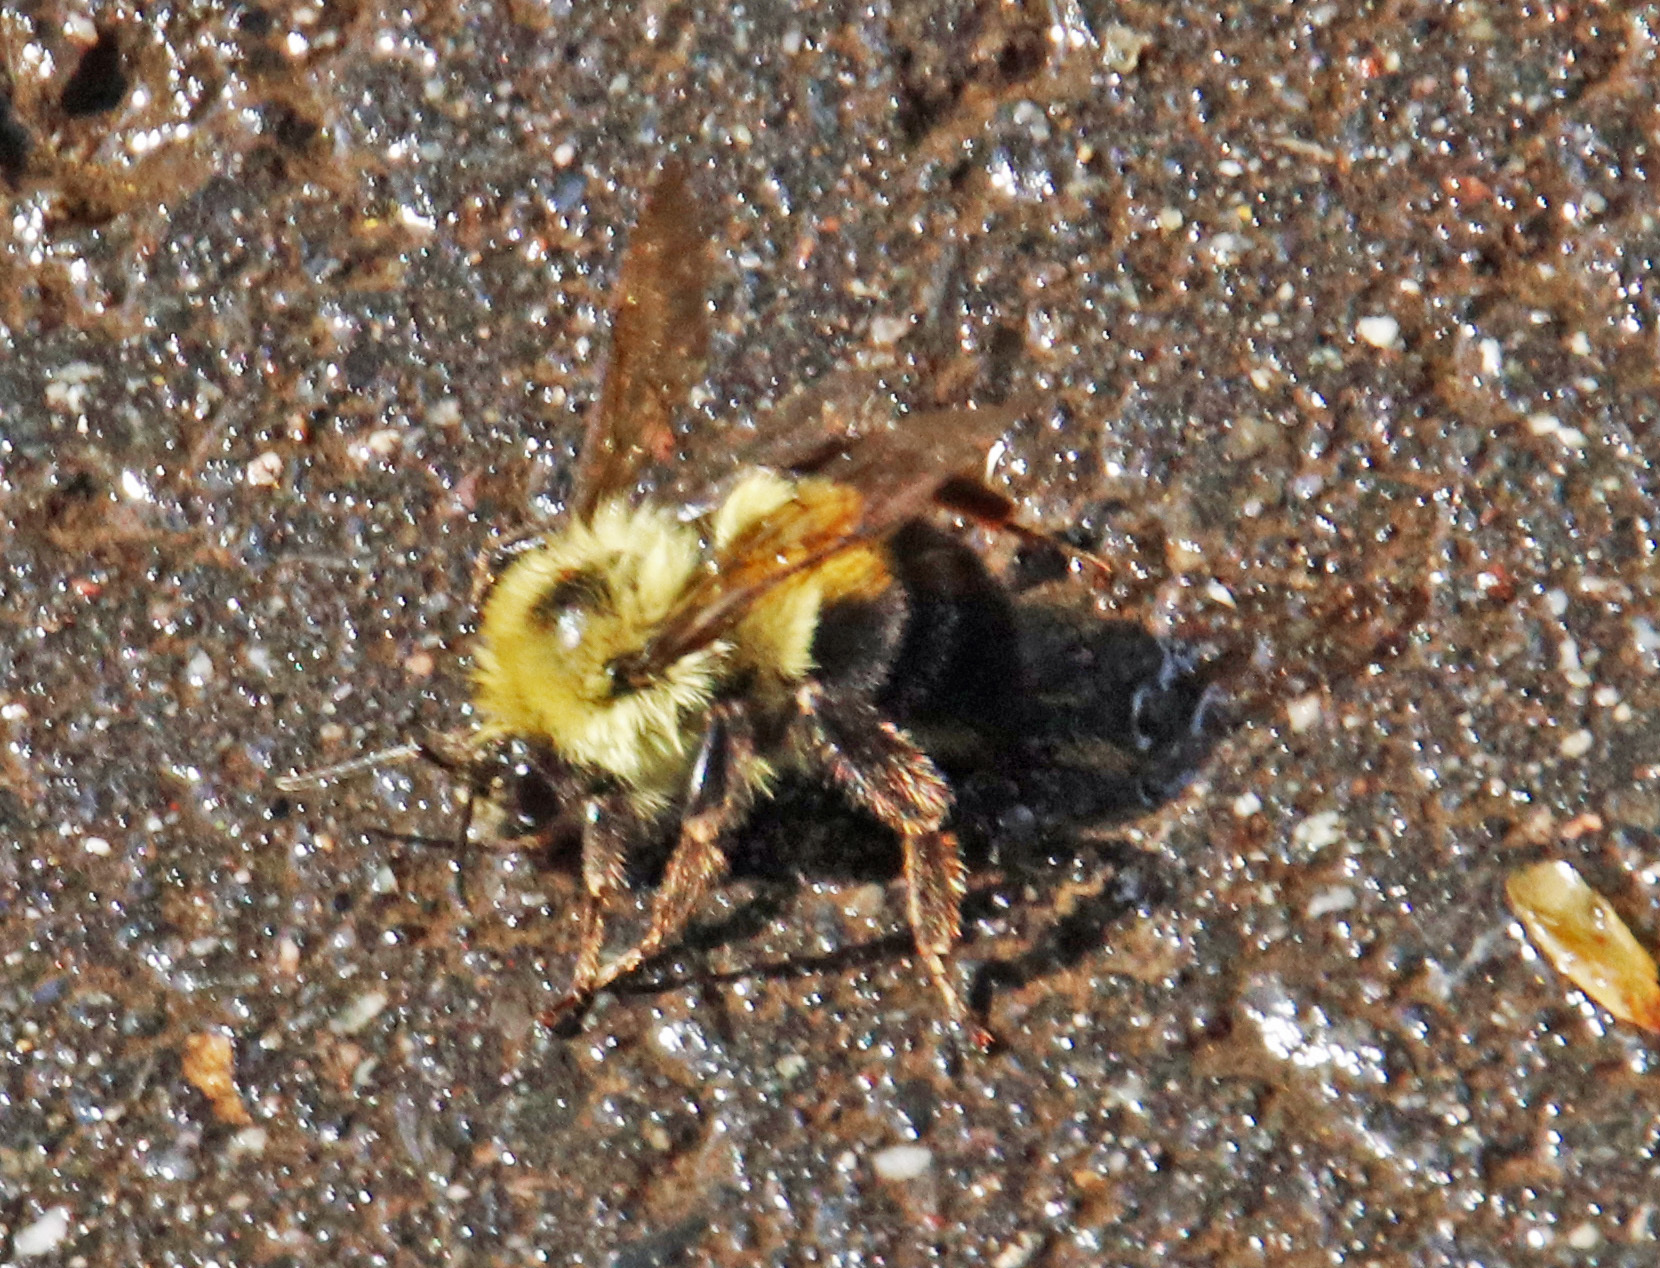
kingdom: Animalia
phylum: Arthropoda
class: Insecta
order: Hymenoptera
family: Apidae
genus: Bombus
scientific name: Bombus bimaculatus
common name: Two-spotted bumble bee
